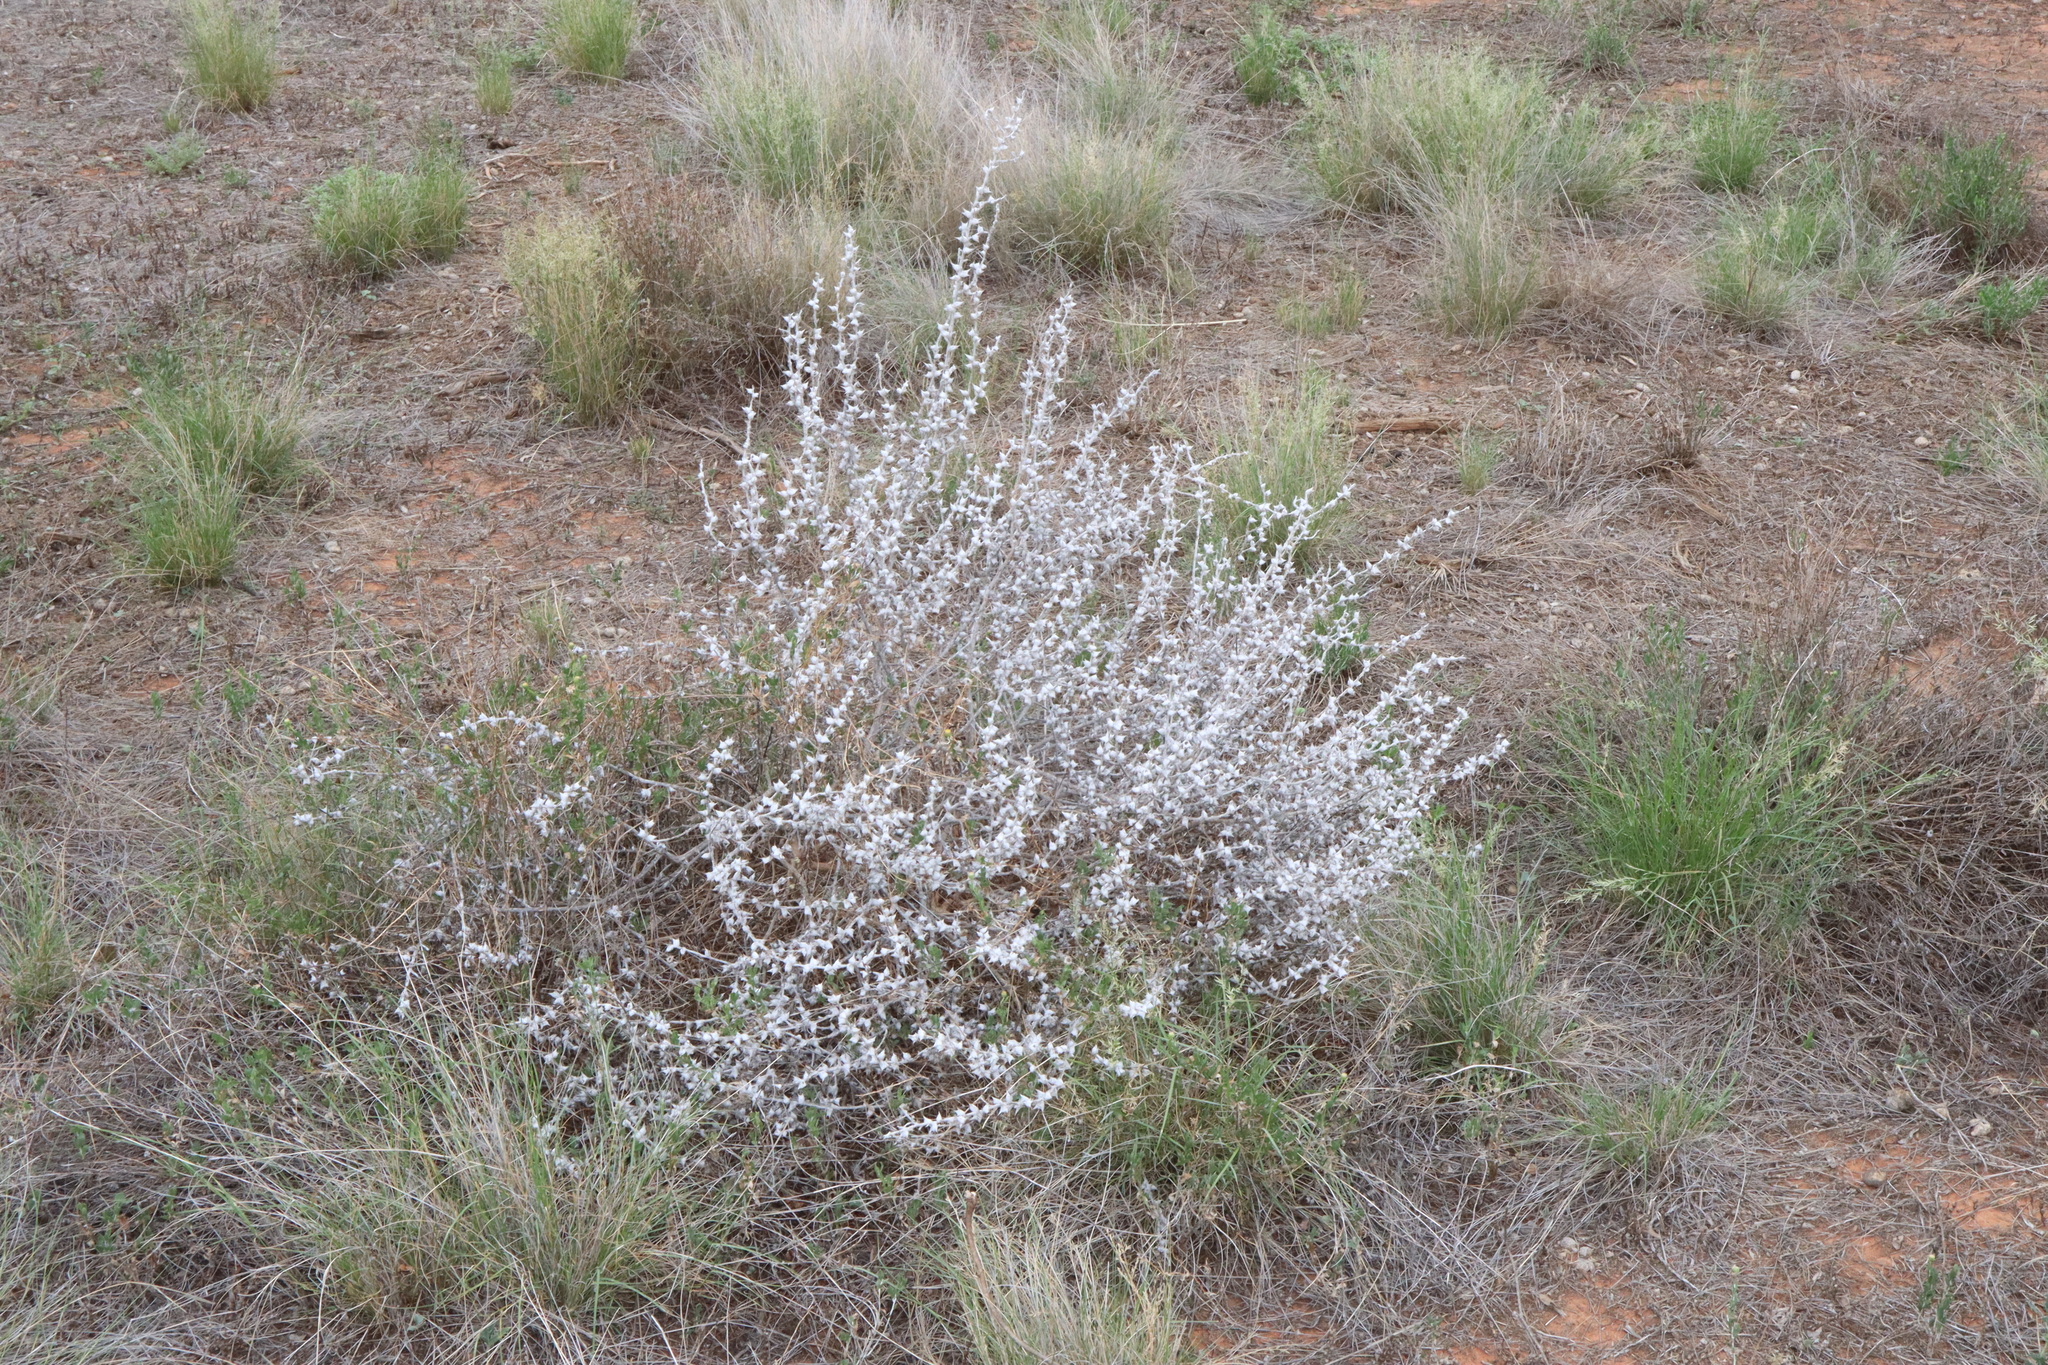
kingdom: Plantae
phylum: Tracheophyta
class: Magnoliopsida
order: Caryophyllales
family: Amaranthaceae
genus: Sclerolaena
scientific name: Sclerolaena bicornis
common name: Goatheadbur
